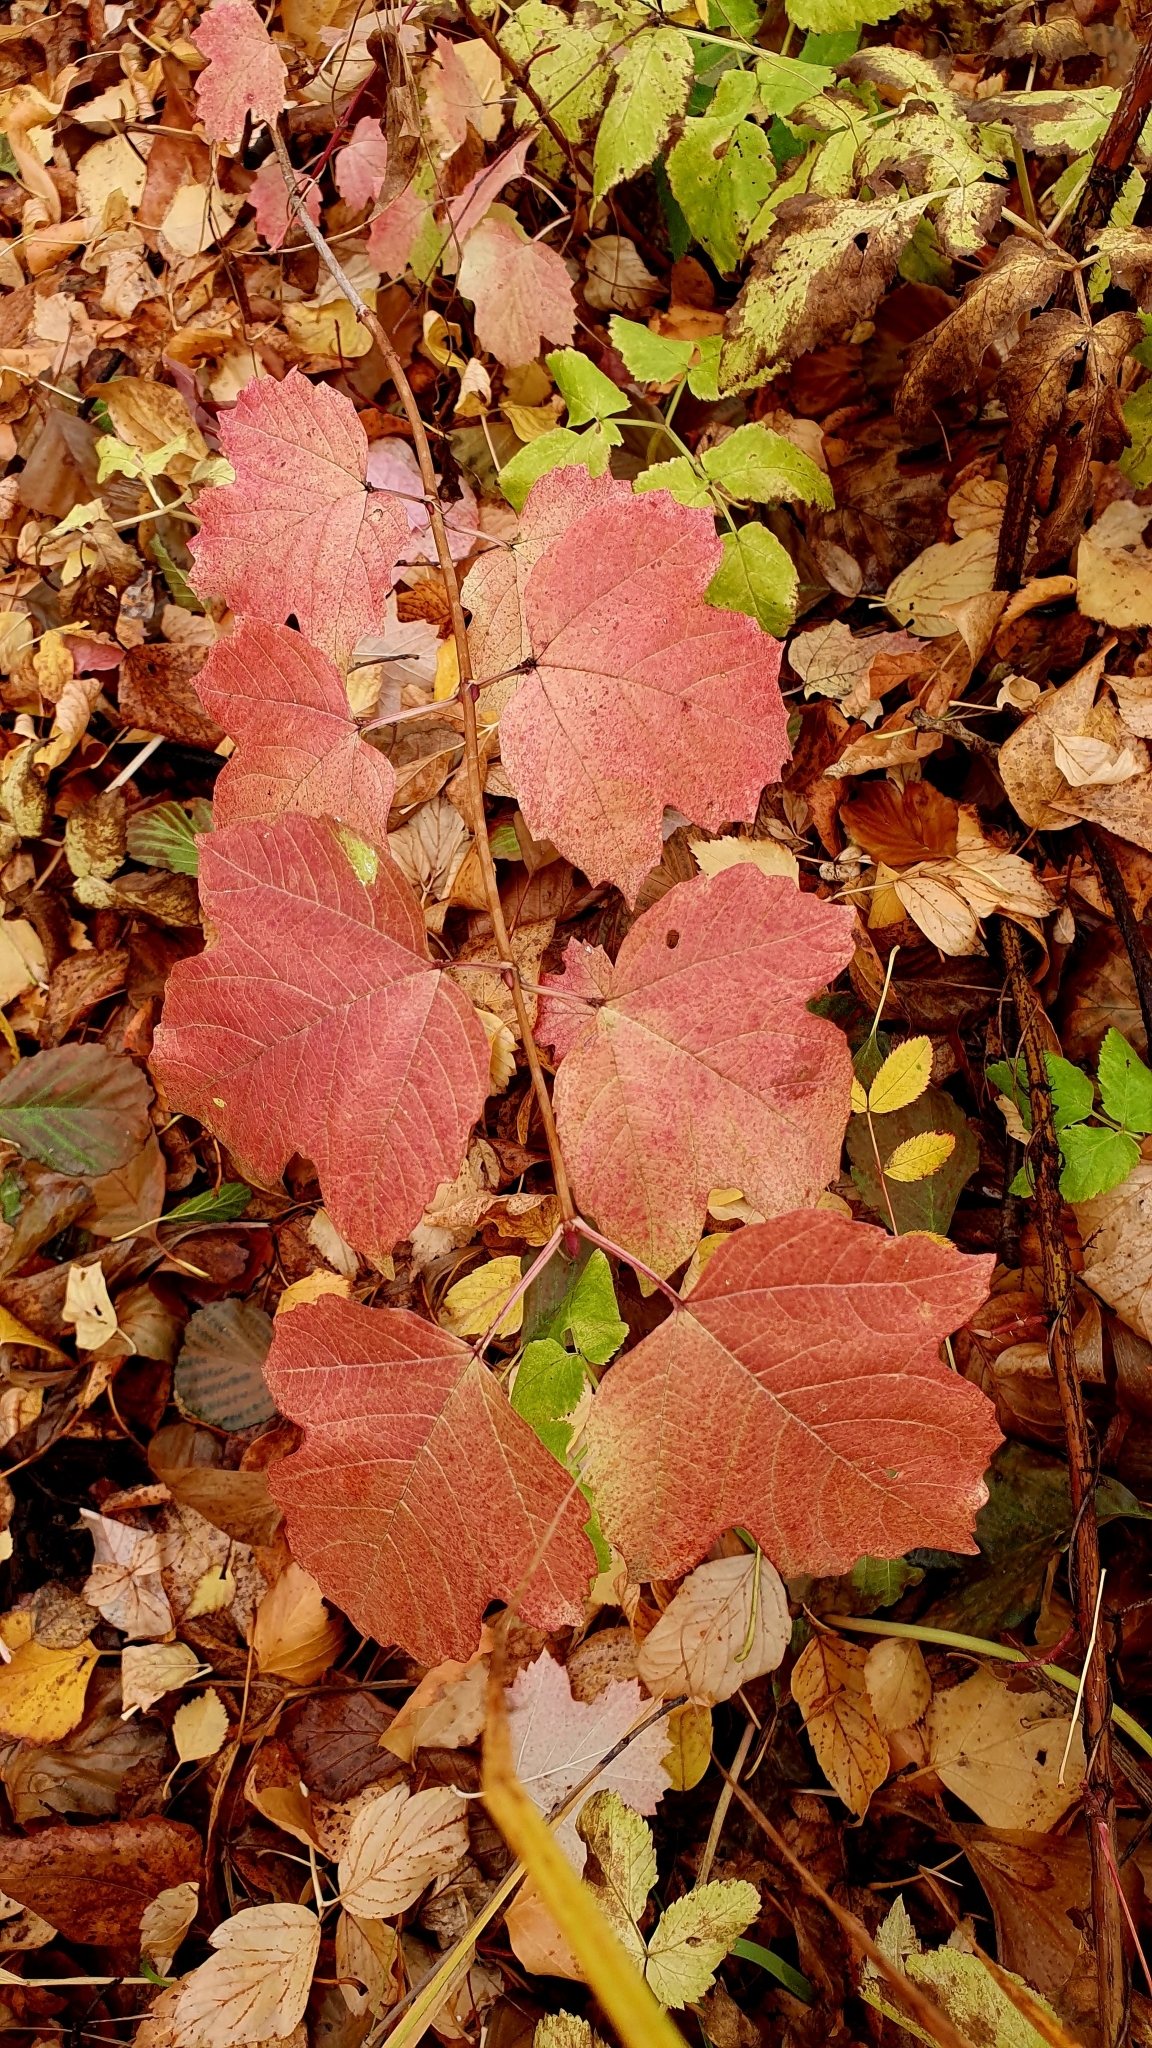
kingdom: Plantae
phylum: Tracheophyta
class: Magnoliopsida
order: Dipsacales
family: Viburnaceae
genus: Viburnum
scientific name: Viburnum opulus
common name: Guelder-rose
